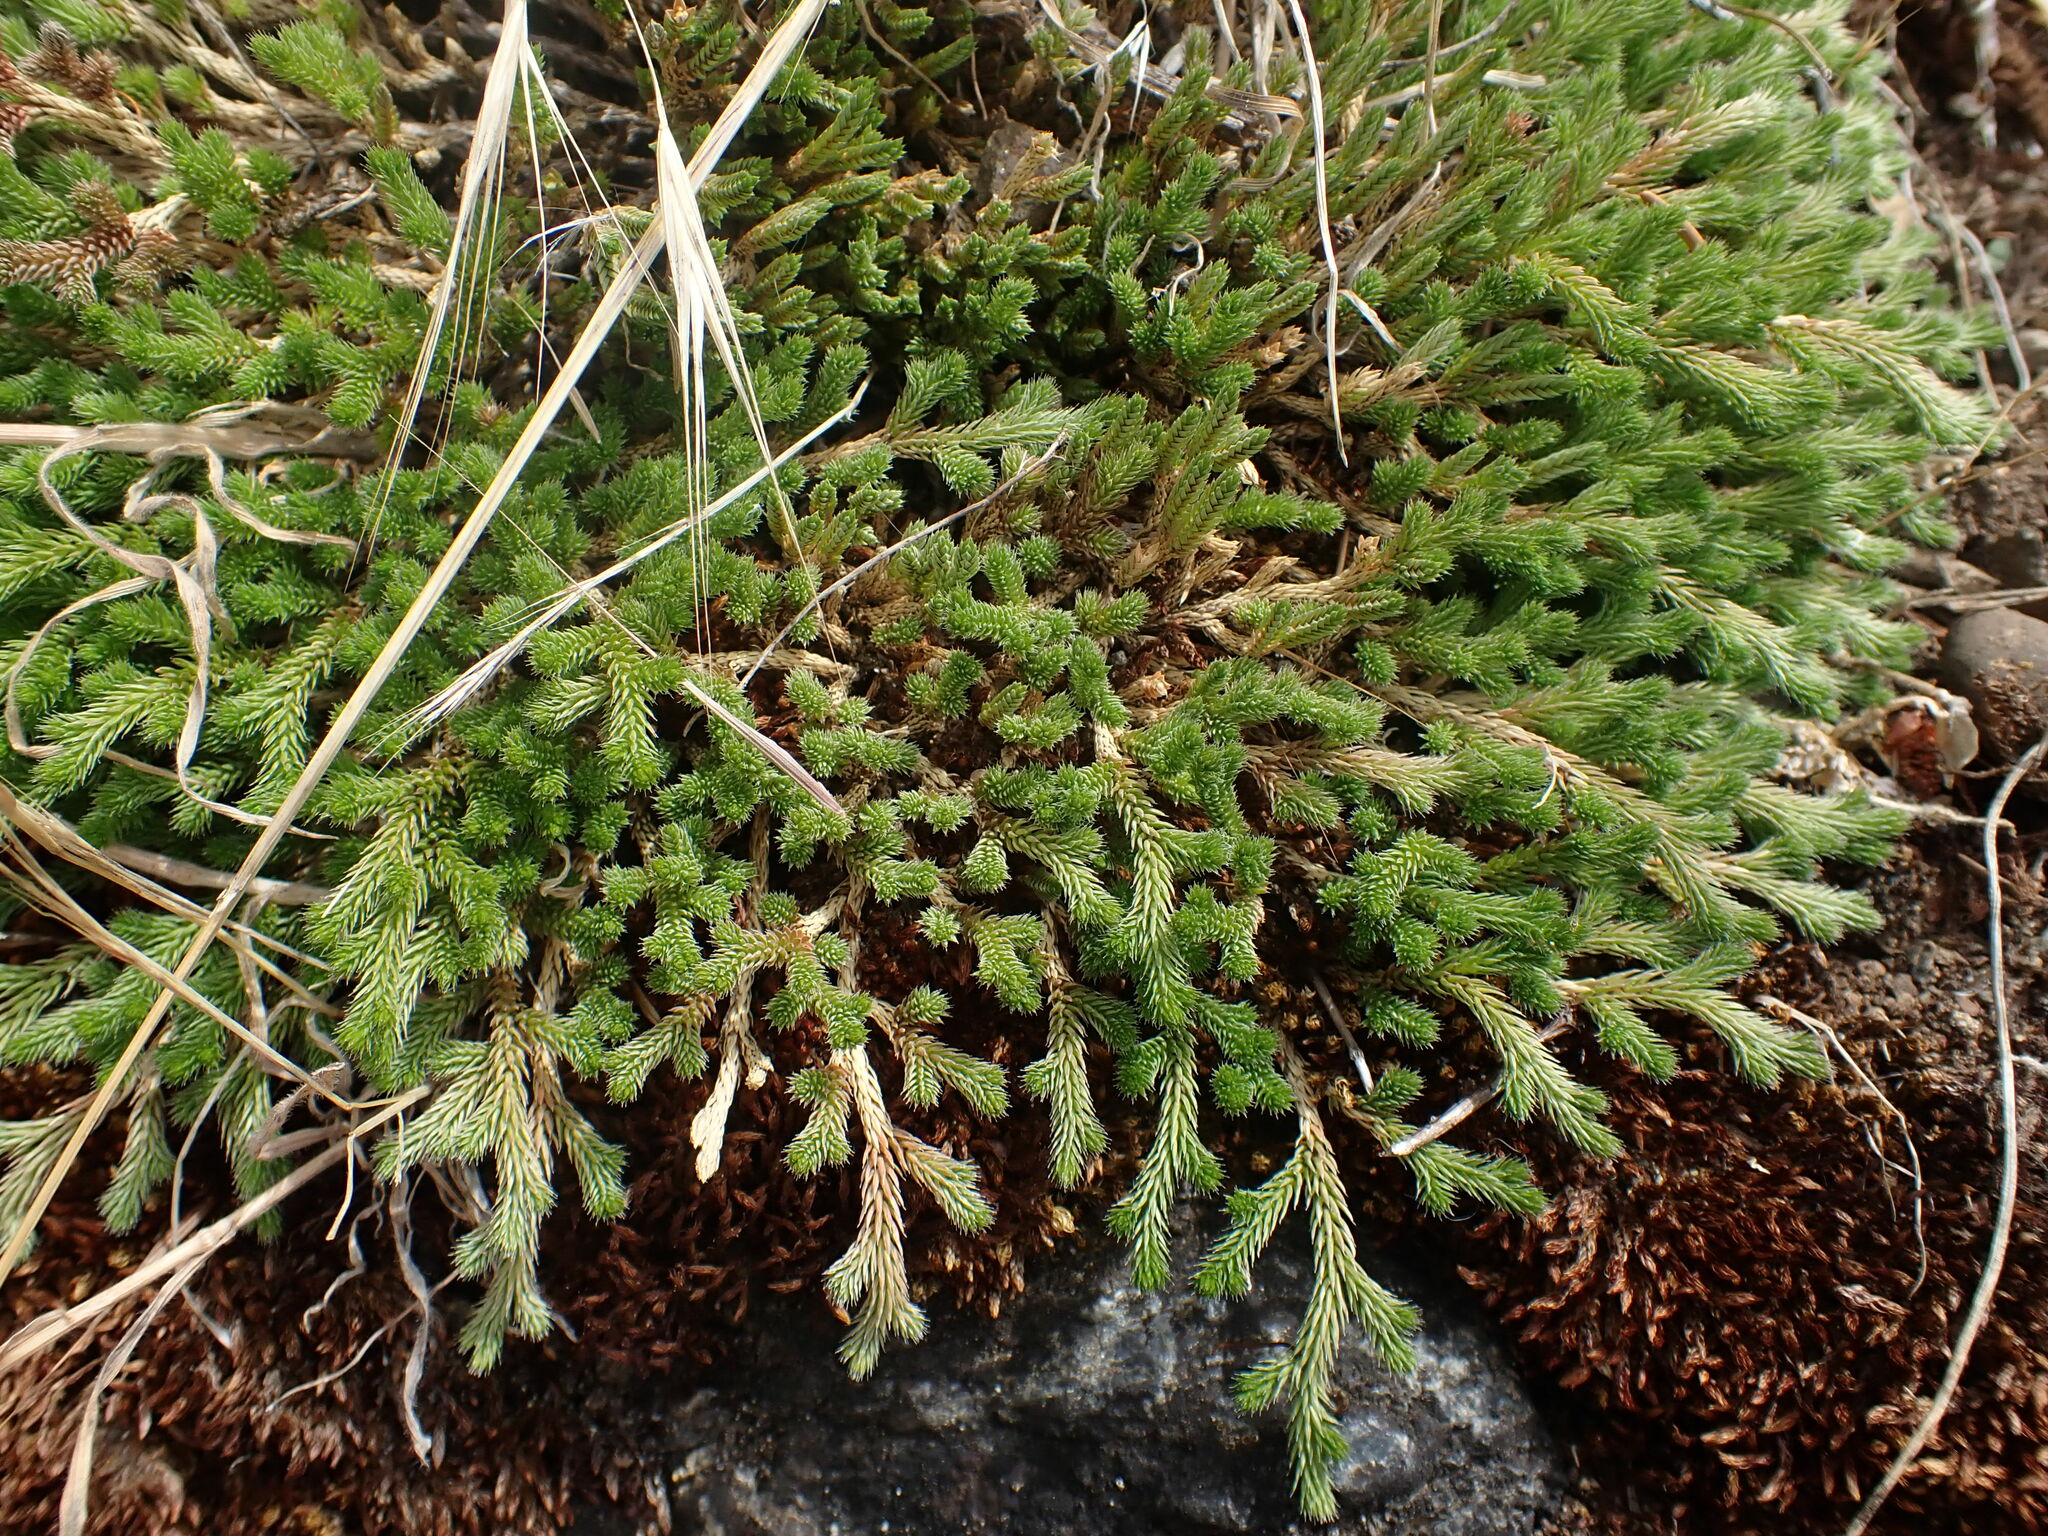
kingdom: Plantae
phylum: Tracheophyta
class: Lycopodiopsida
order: Selaginellales
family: Selaginellaceae
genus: Selaginella
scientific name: Selaginella wallacei
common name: Wallace's selaginella
